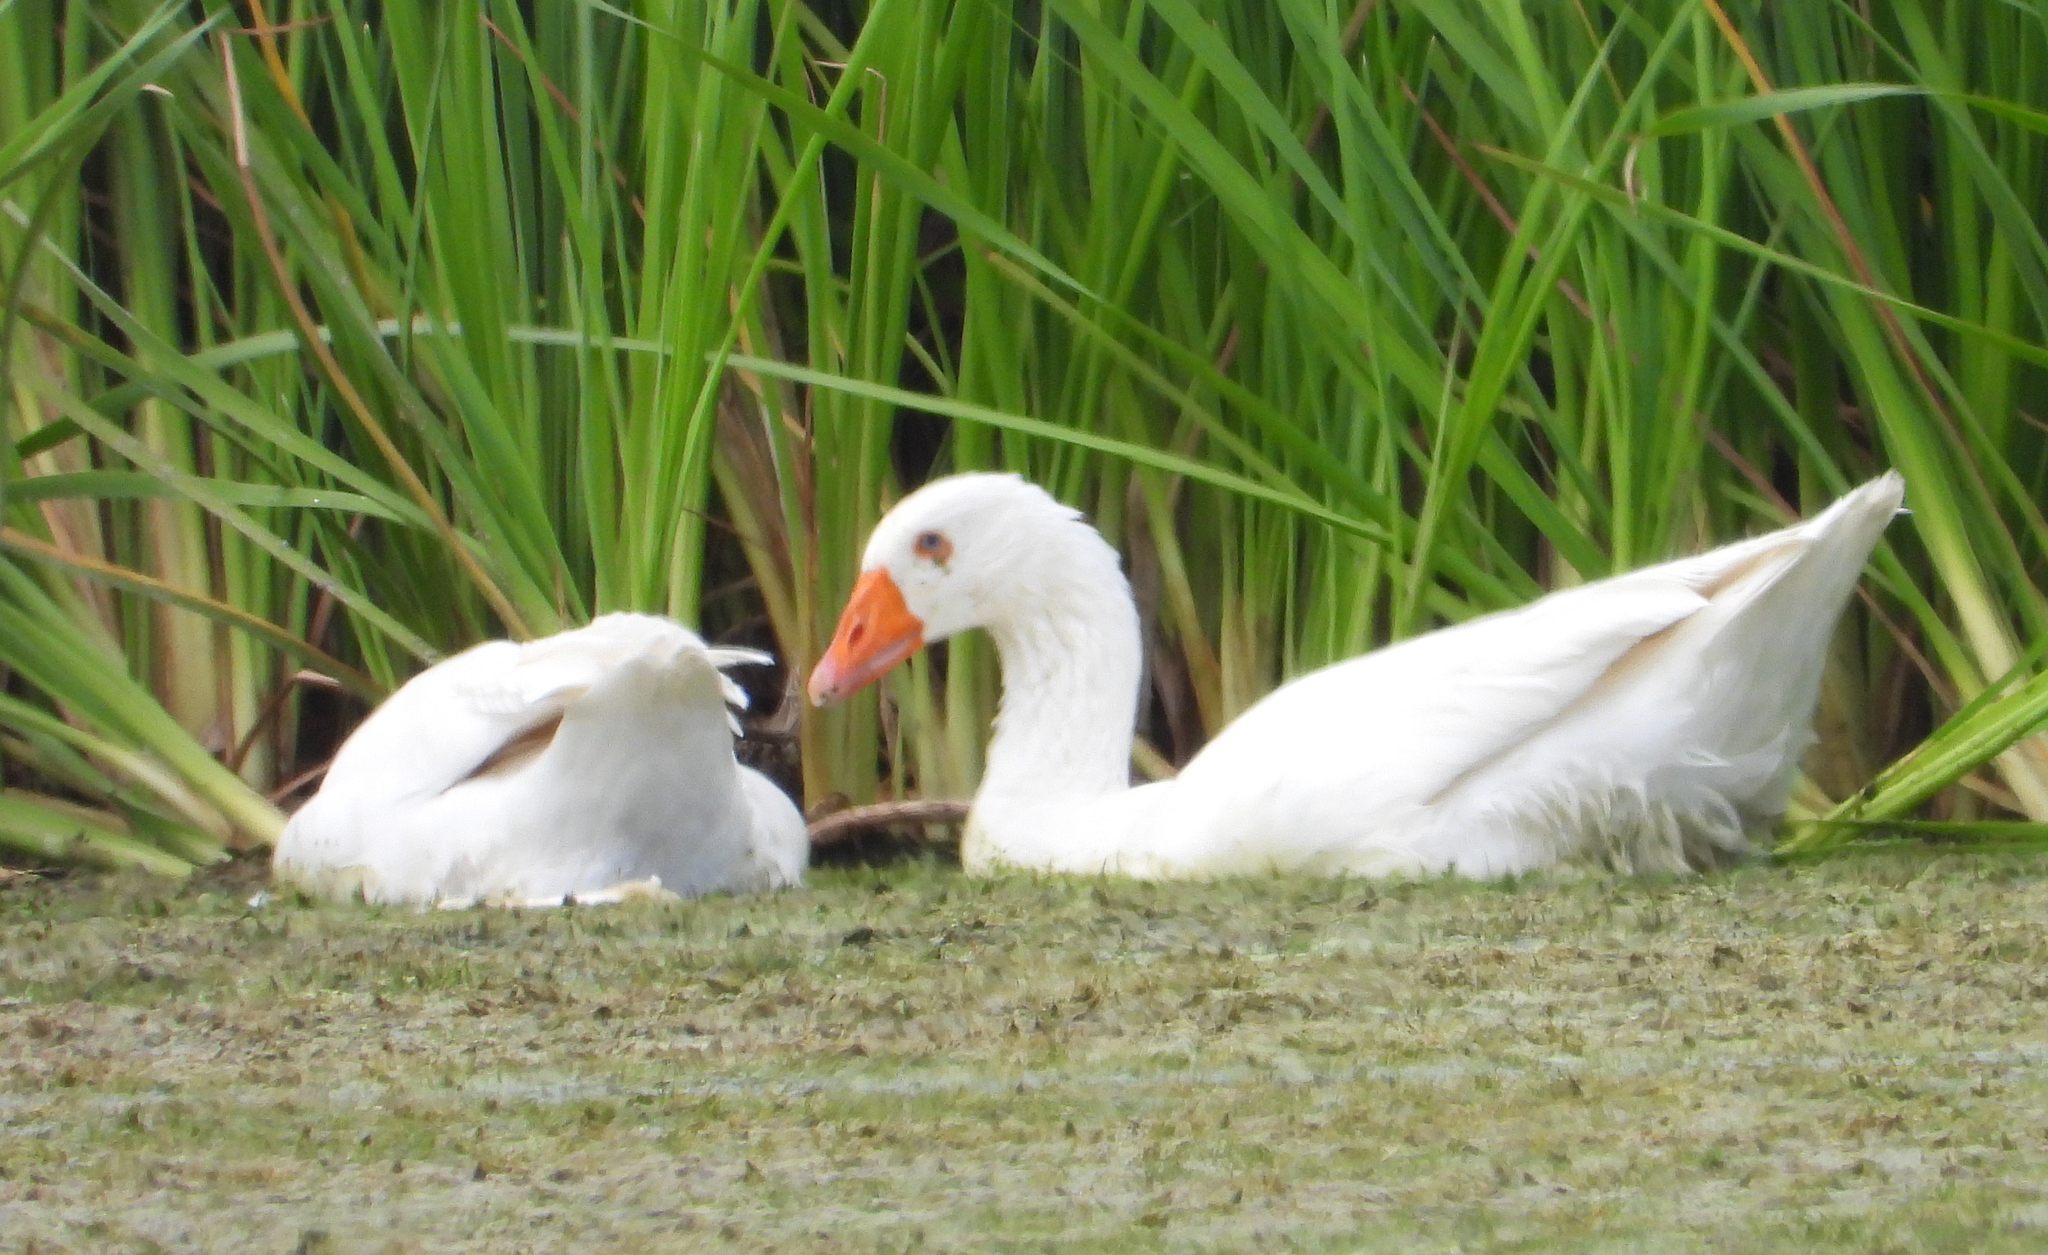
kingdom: Animalia
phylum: Chordata
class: Aves
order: Anseriformes
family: Anatidae
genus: Anser
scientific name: Anser anser
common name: Greylag goose
